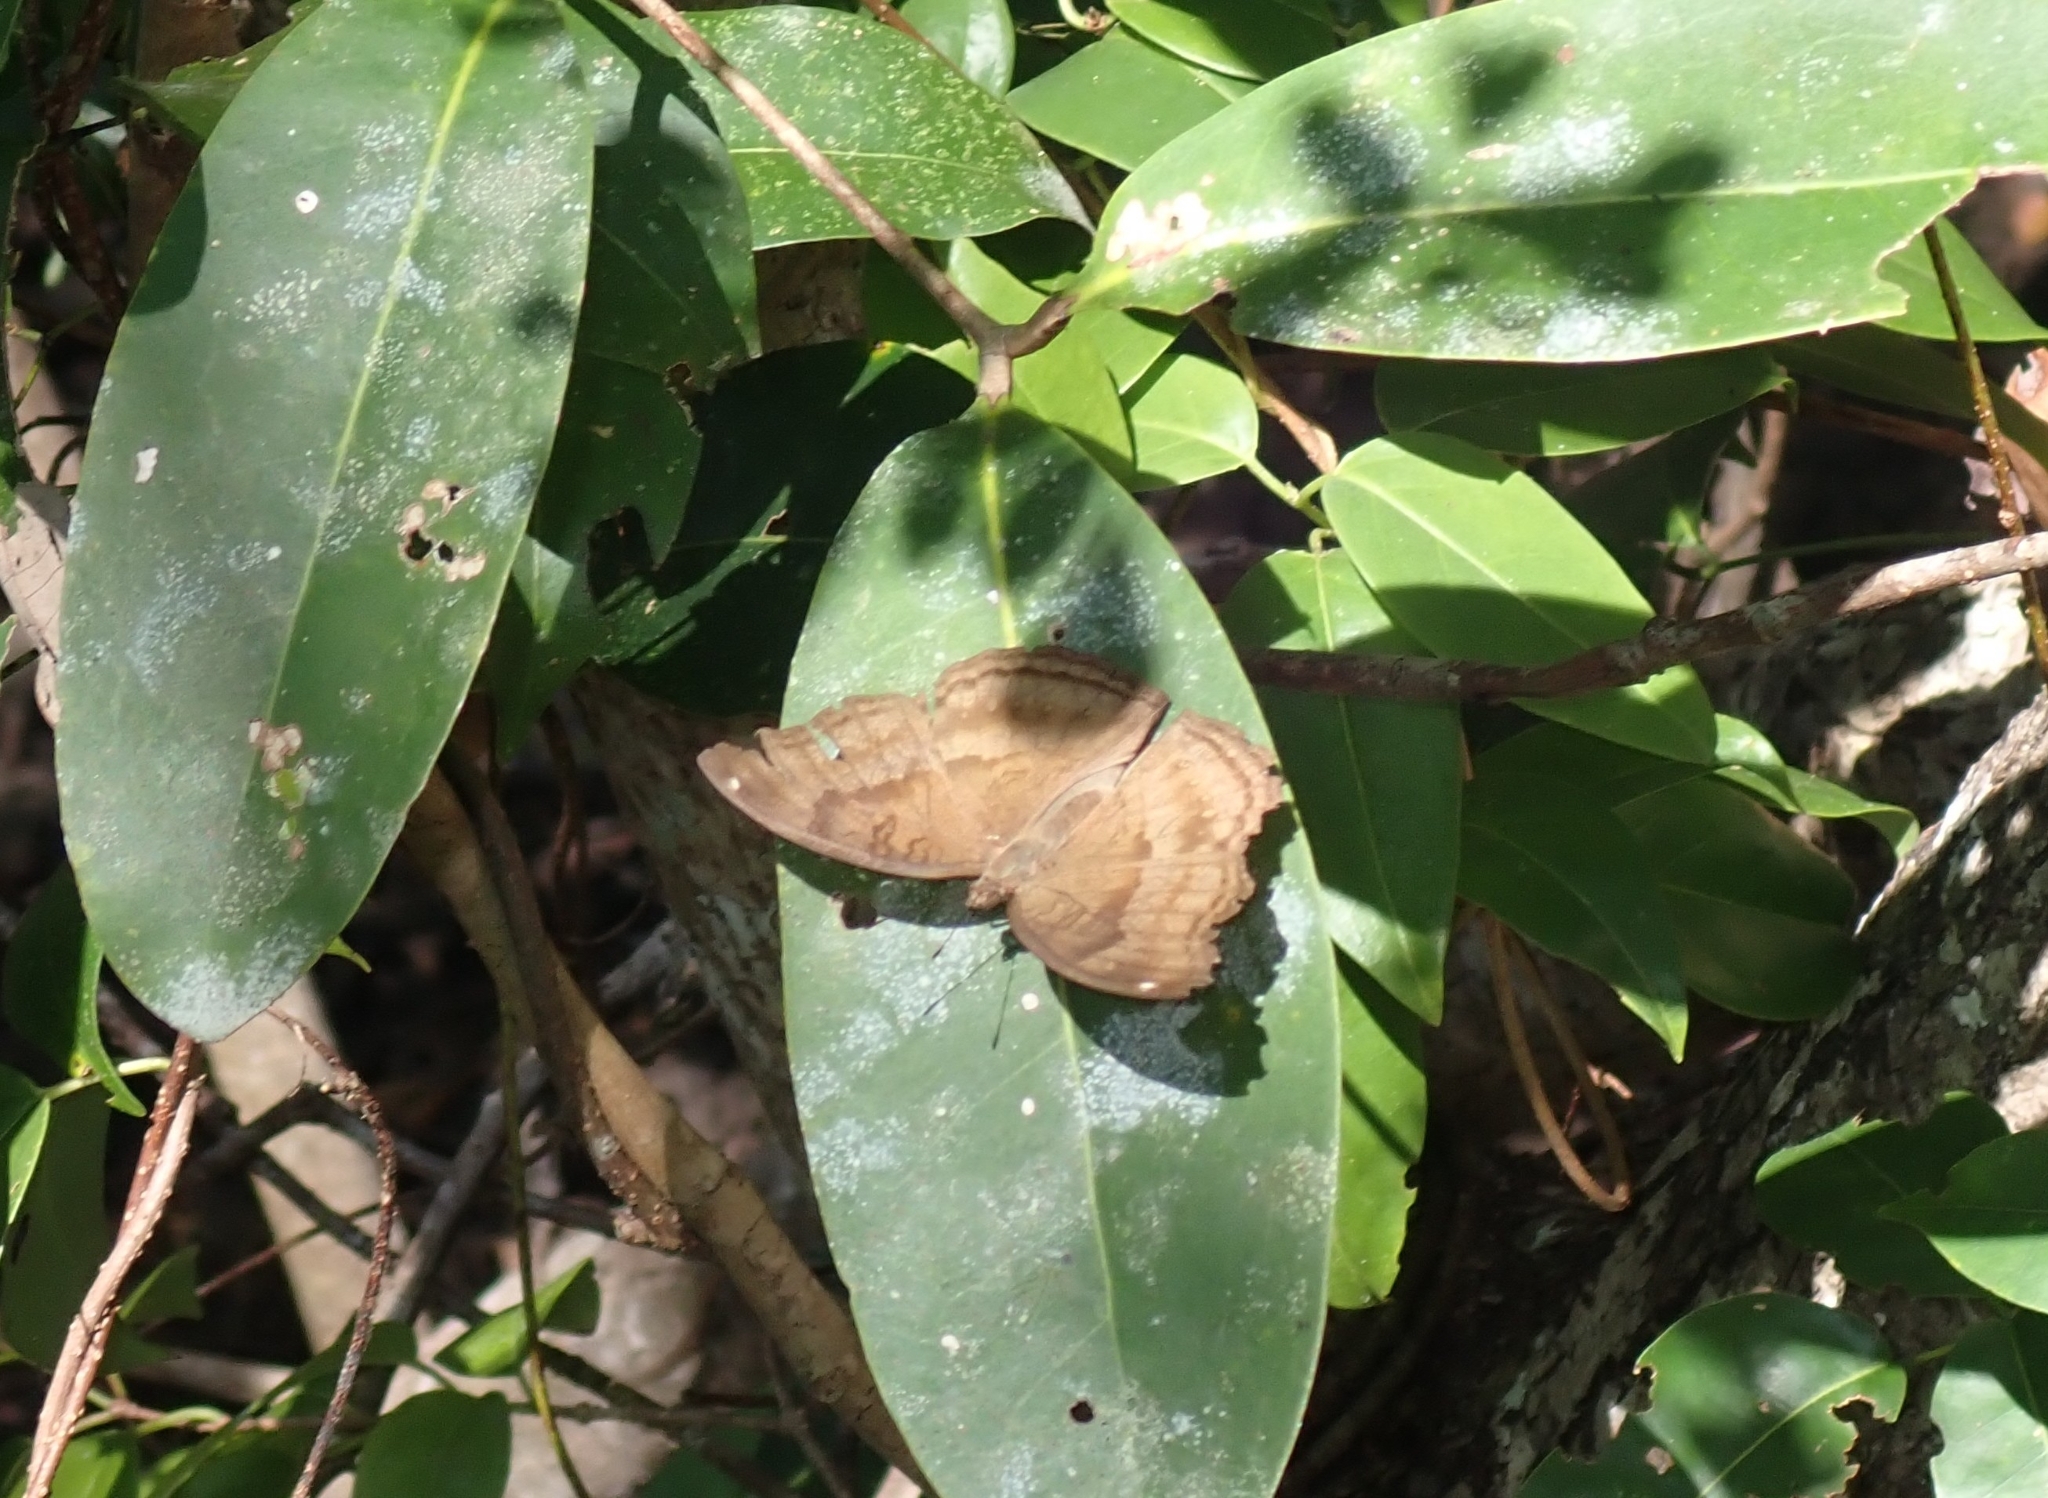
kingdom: Animalia
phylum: Arthropoda
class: Insecta
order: Lepidoptera
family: Nymphalidae
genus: Junonia
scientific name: Junonia iphita
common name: Chocolate pansy
